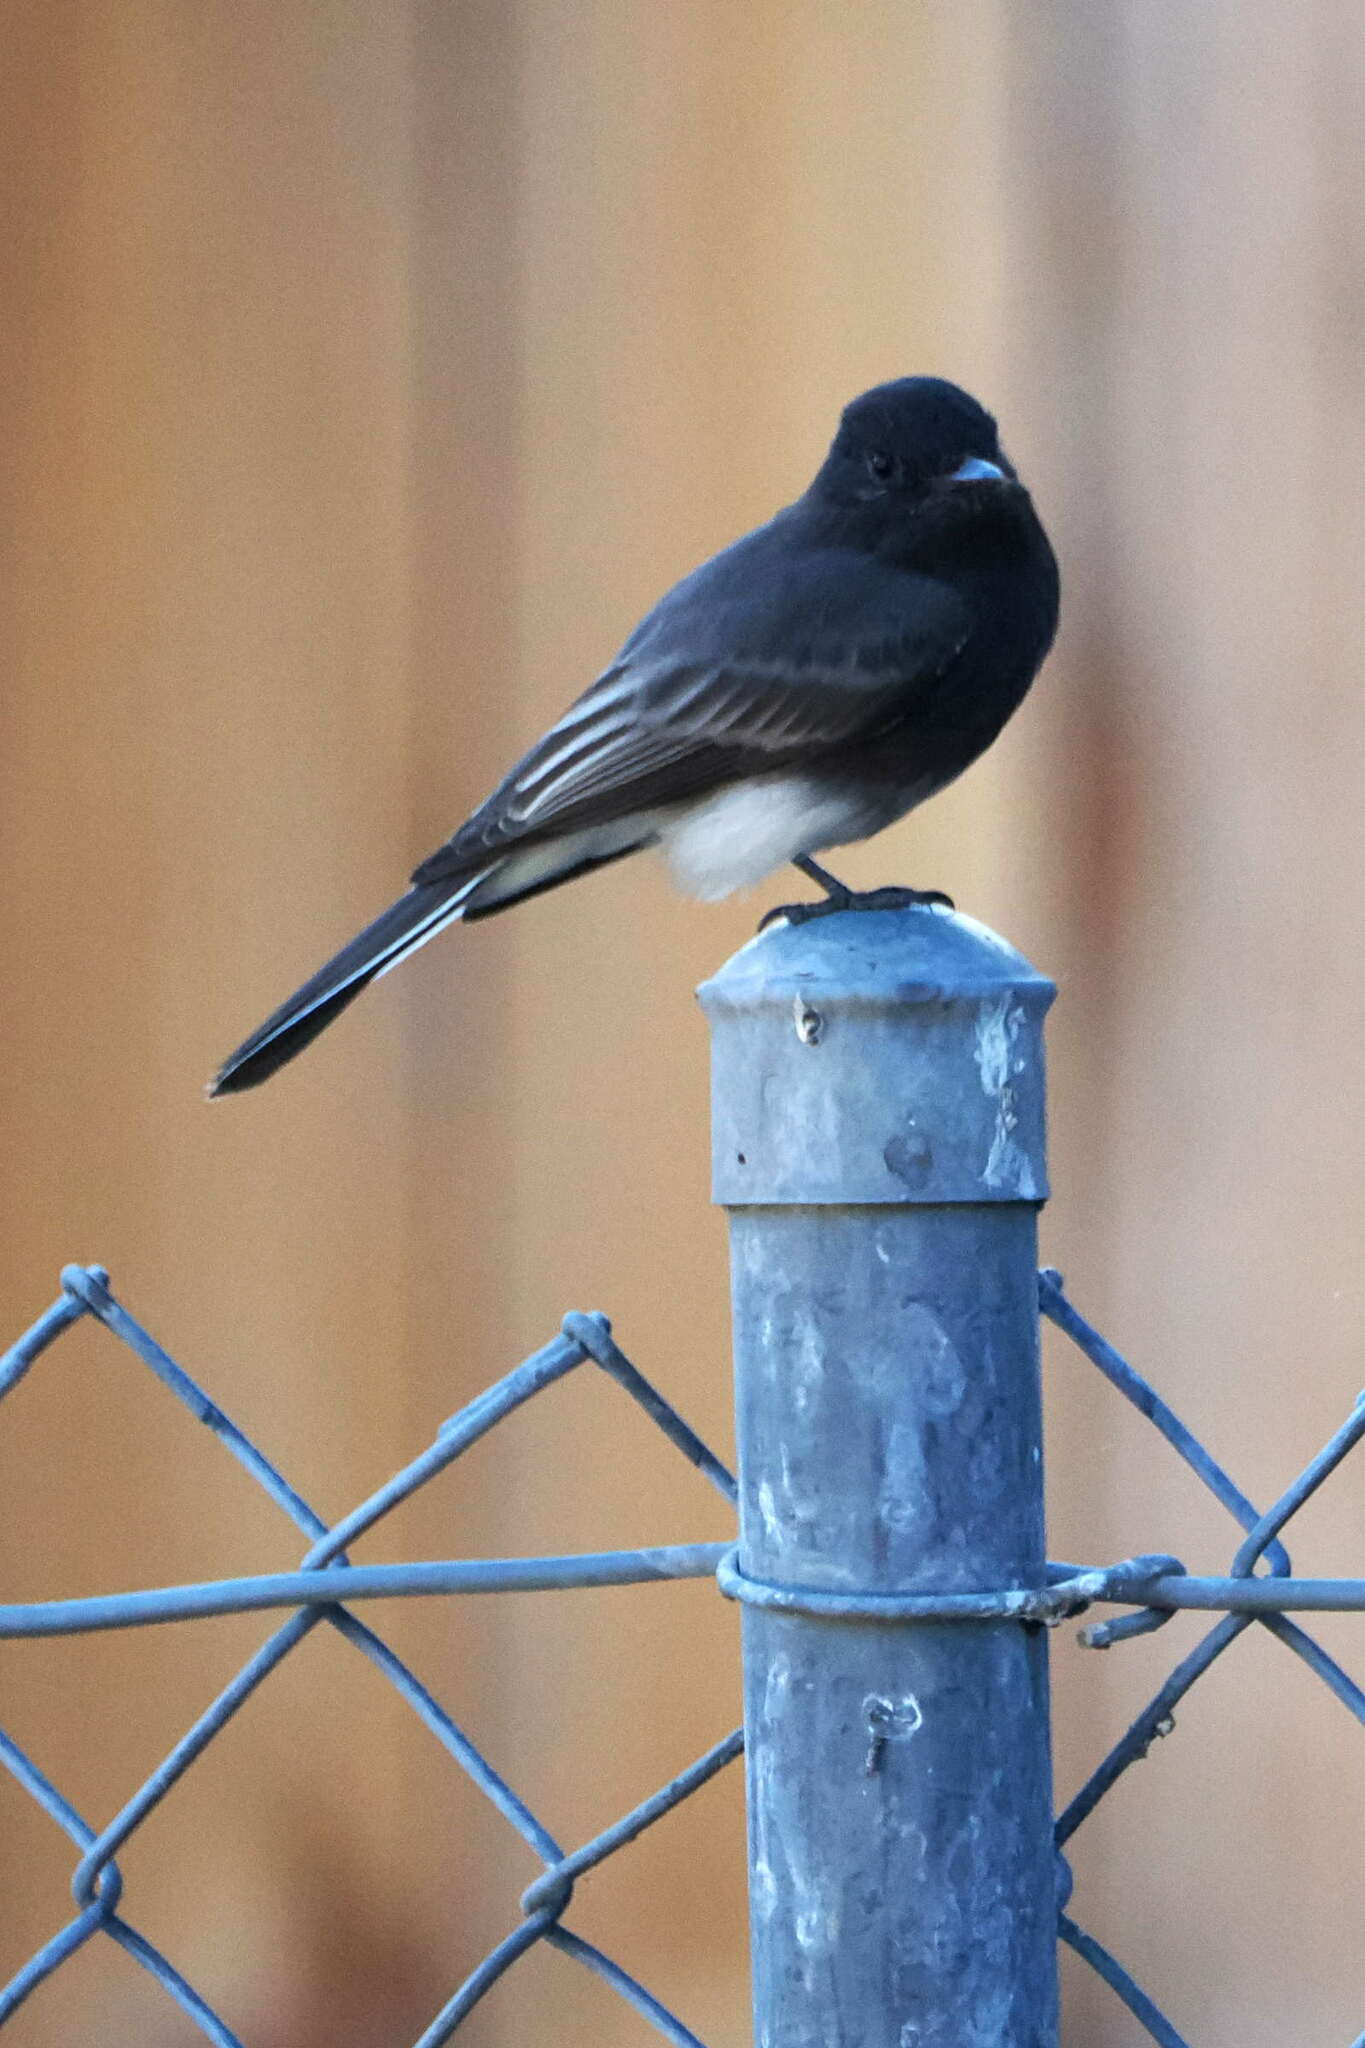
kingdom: Animalia
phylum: Chordata
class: Aves
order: Passeriformes
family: Tyrannidae
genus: Sayornis
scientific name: Sayornis nigricans
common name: Black phoebe
